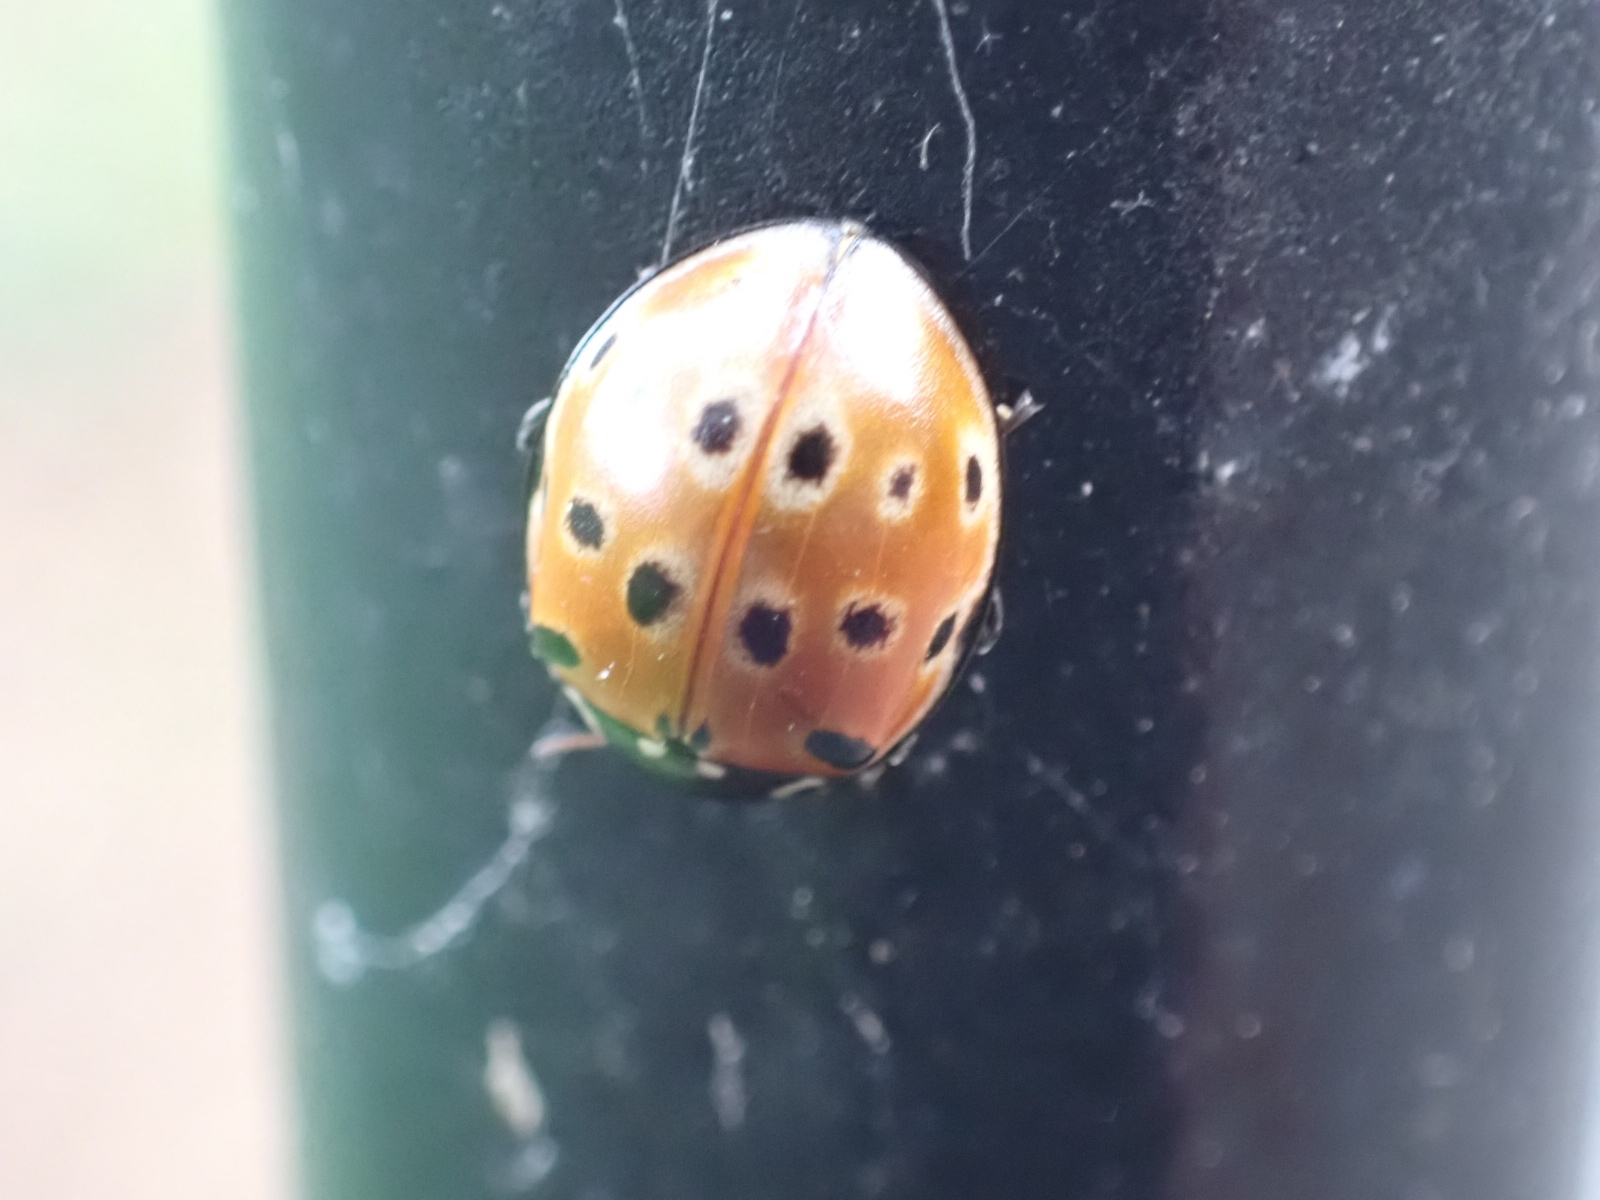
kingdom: Animalia
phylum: Arthropoda
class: Insecta
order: Coleoptera
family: Coccinellidae
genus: Anatis
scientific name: Anatis ocellata
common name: Eyed ladybird
